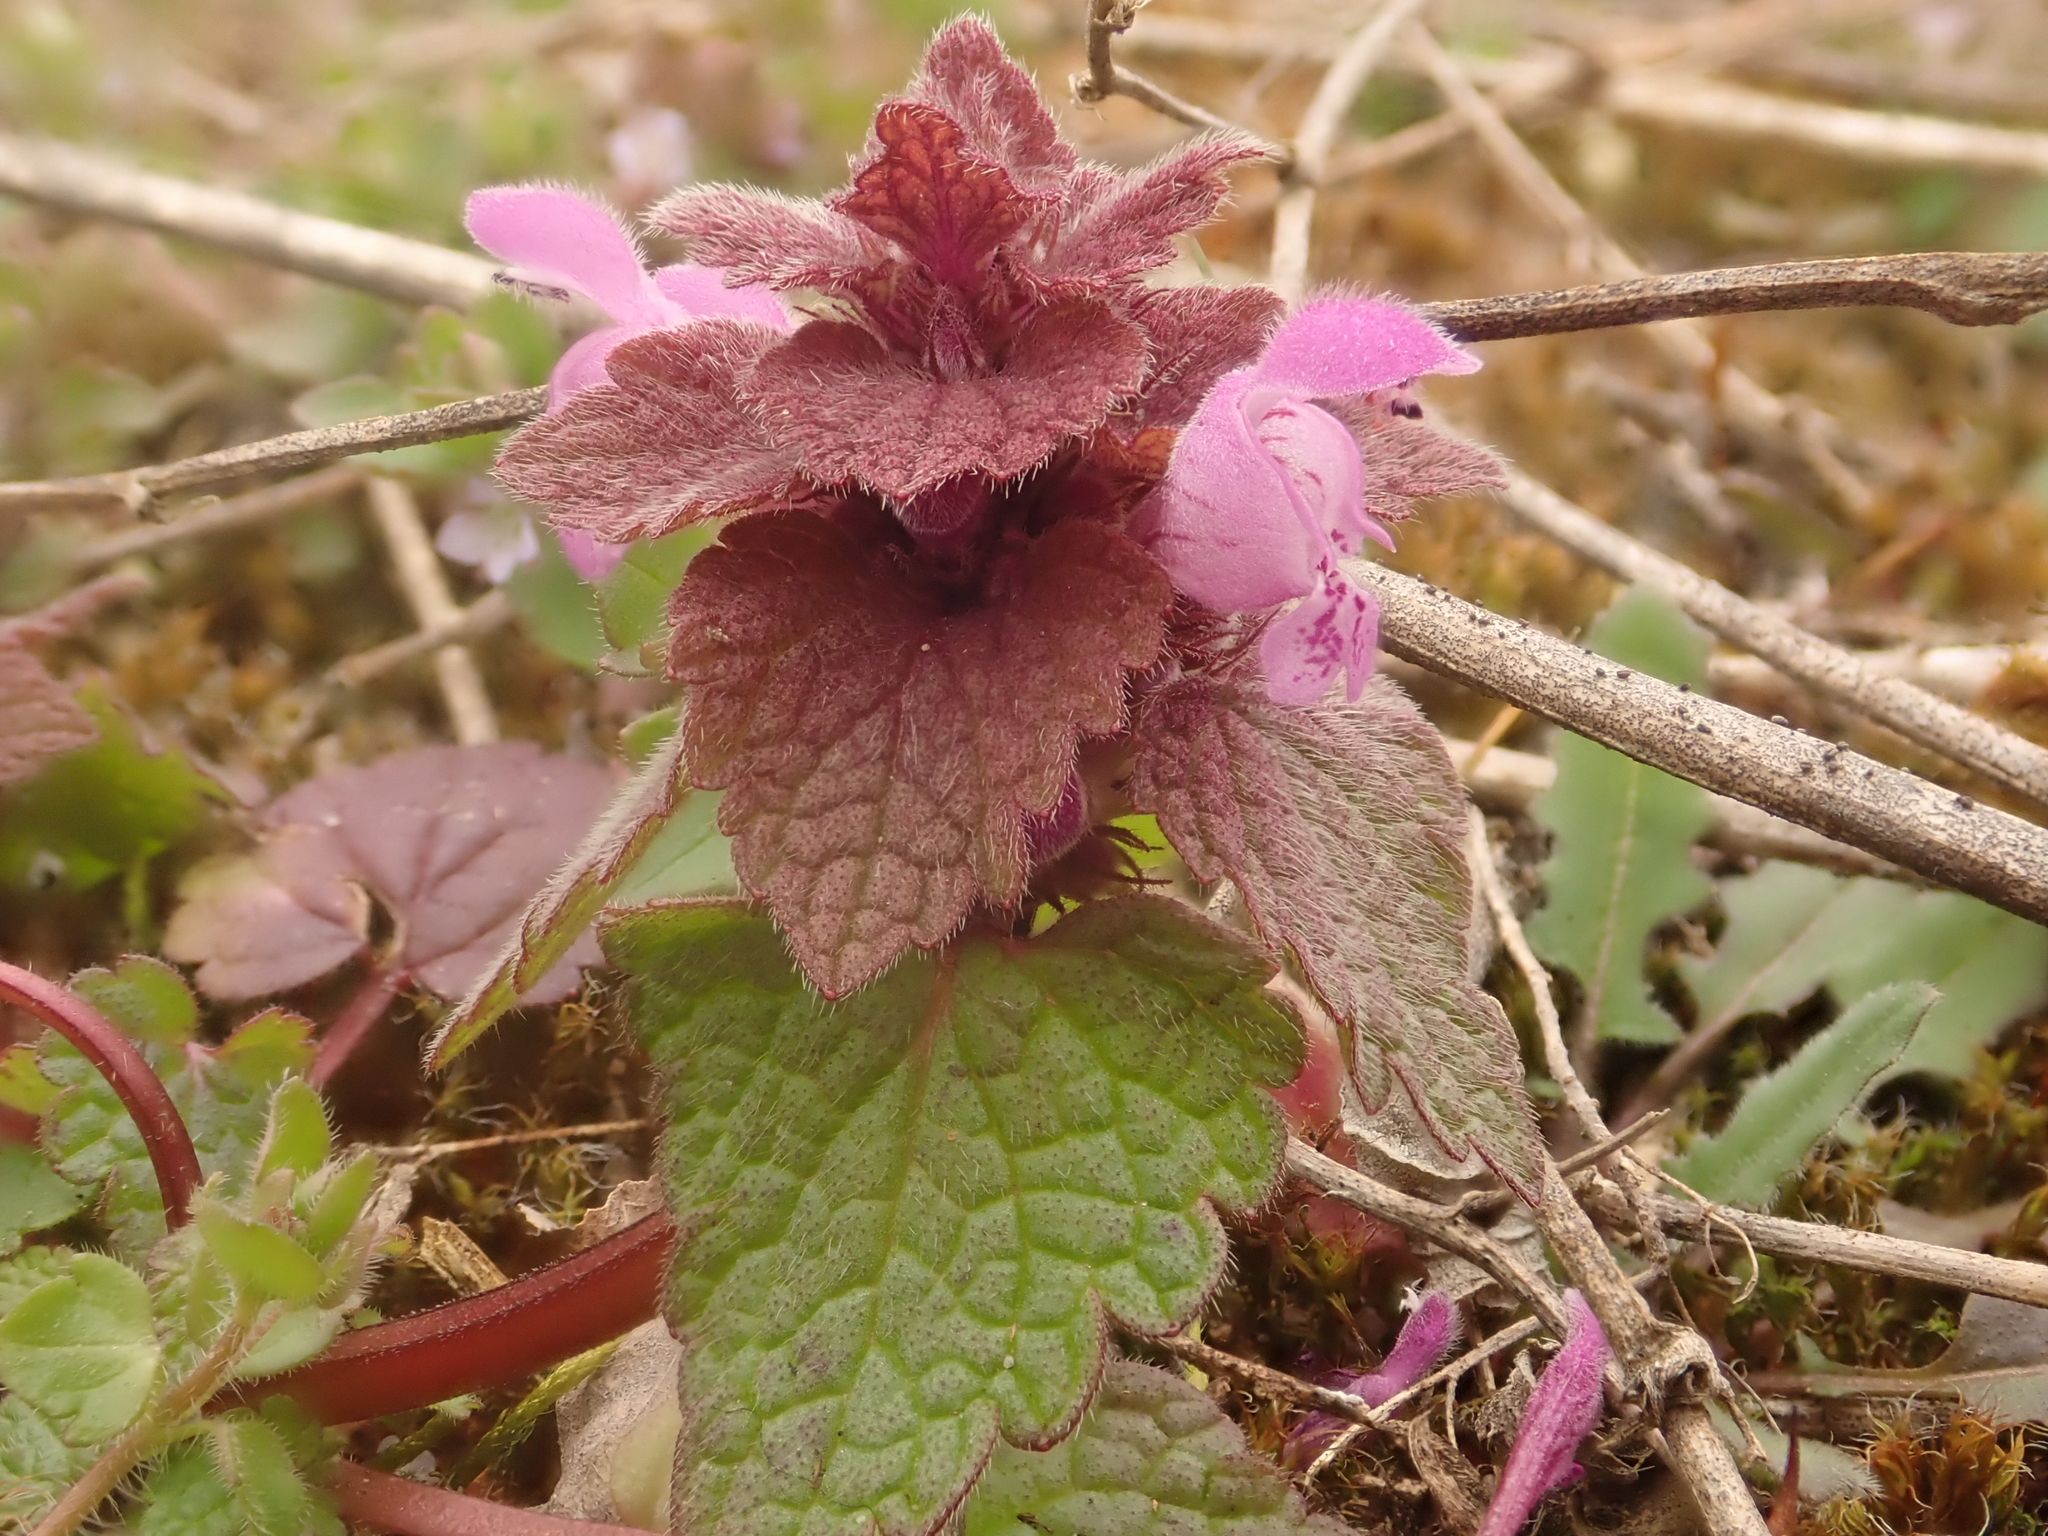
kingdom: Plantae
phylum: Tracheophyta
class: Magnoliopsida
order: Lamiales
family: Lamiaceae
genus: Lamium
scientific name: Lamium purpureum
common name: Red dead-nettle
